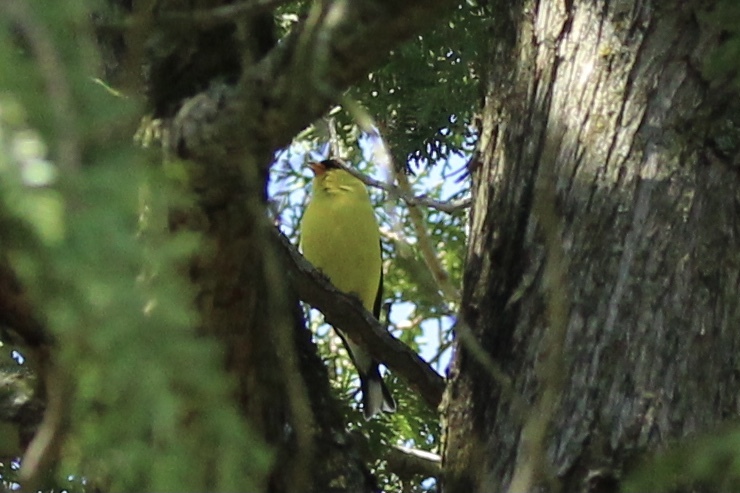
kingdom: Animalia
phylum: Chordata
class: Aves
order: Passeriformes
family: Fringillidae
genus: Spinus
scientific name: Spinus tristis
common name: American goldfinch
